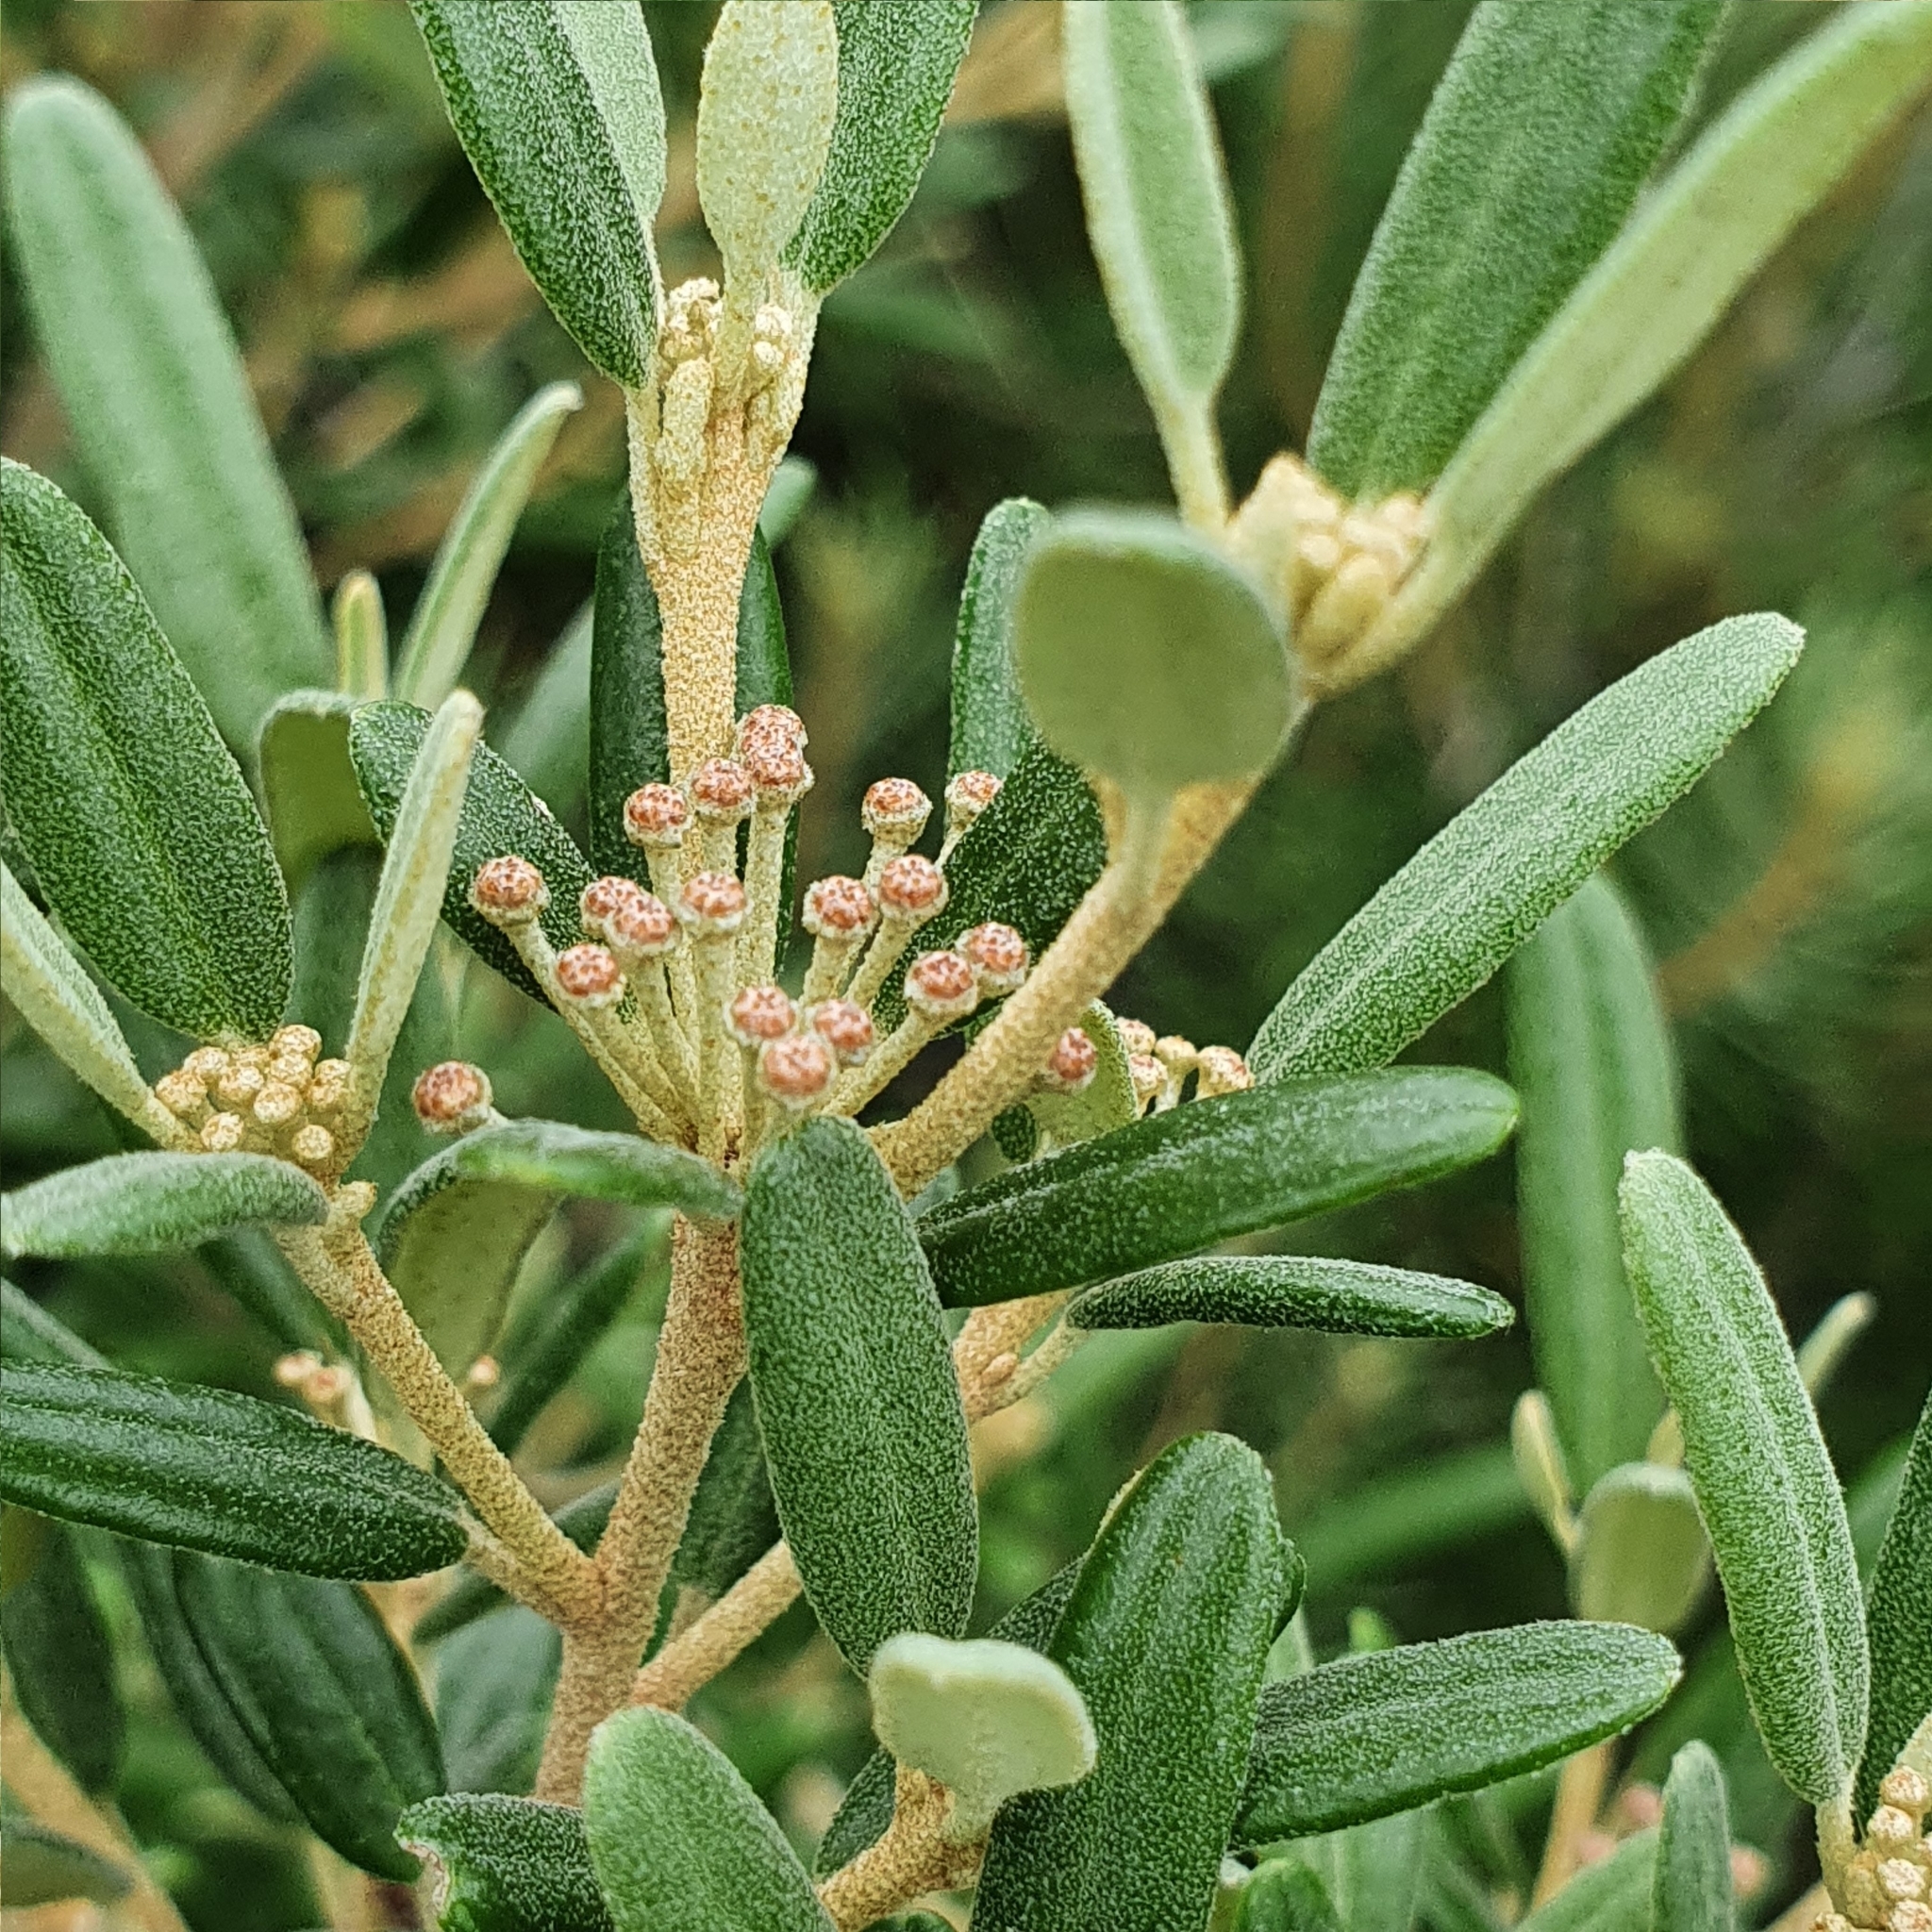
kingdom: Plantae
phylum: Tracheophyta
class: Magnoliopsida
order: Sapindales
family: Rutaceae
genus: Phebalium
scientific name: Phebalium squamulosum
